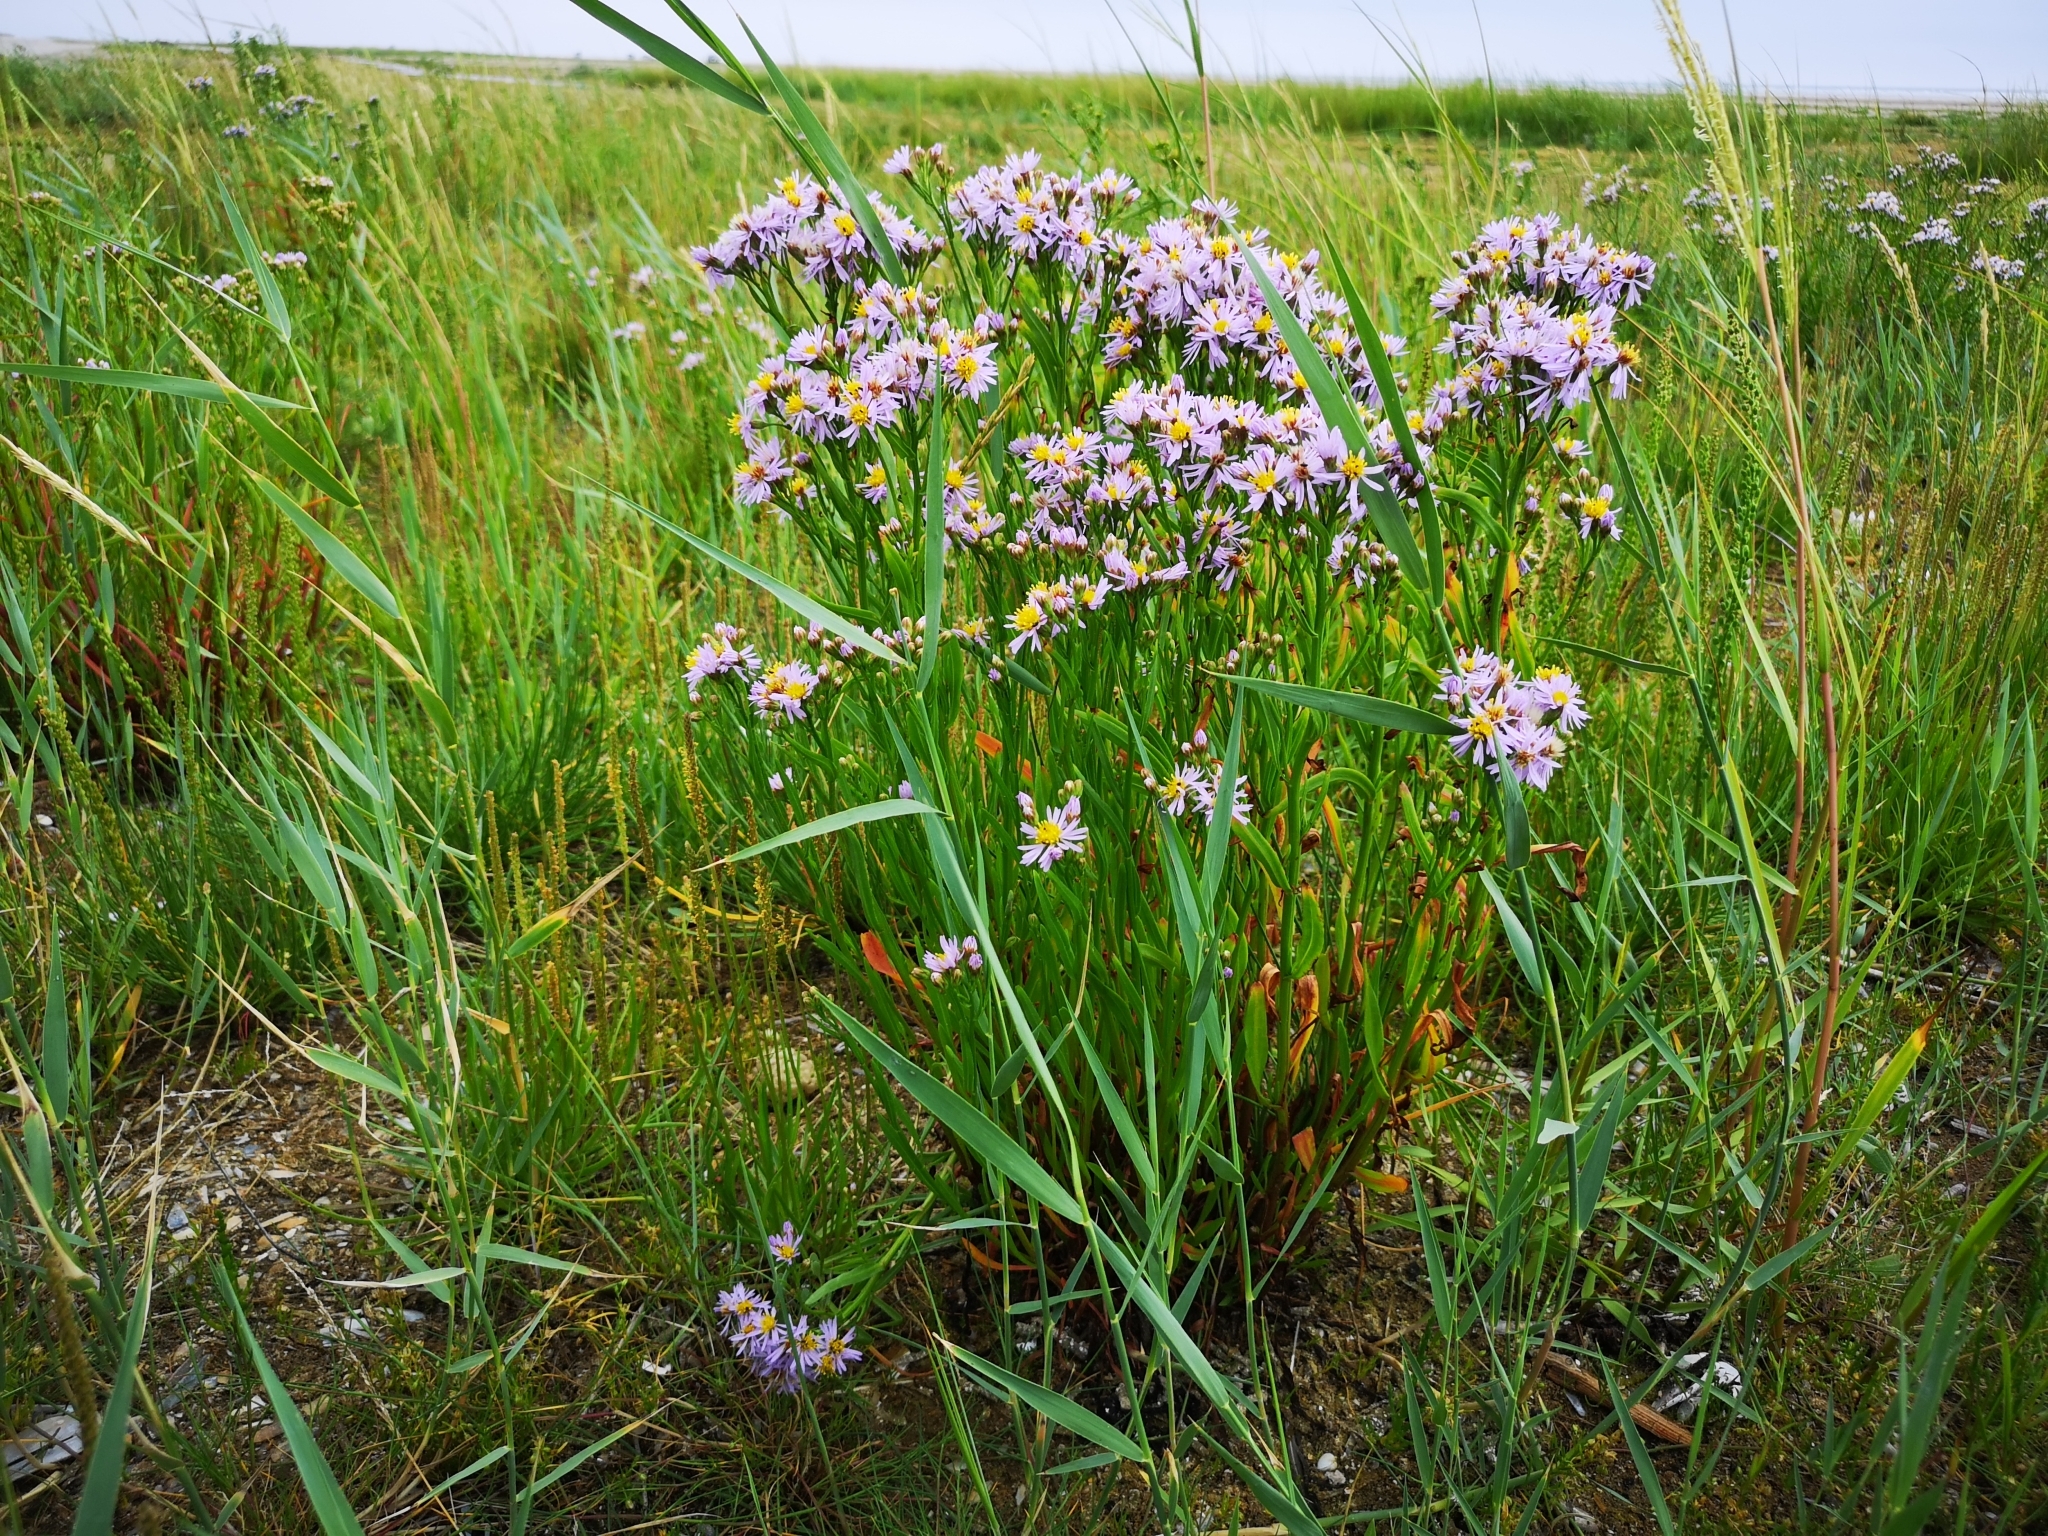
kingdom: Plantae
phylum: Tracheophyta
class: Magnoliopsida
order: Asterales
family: Asteraceae
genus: Tripolium
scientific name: Tripolium pannonicum
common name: Sea aster
